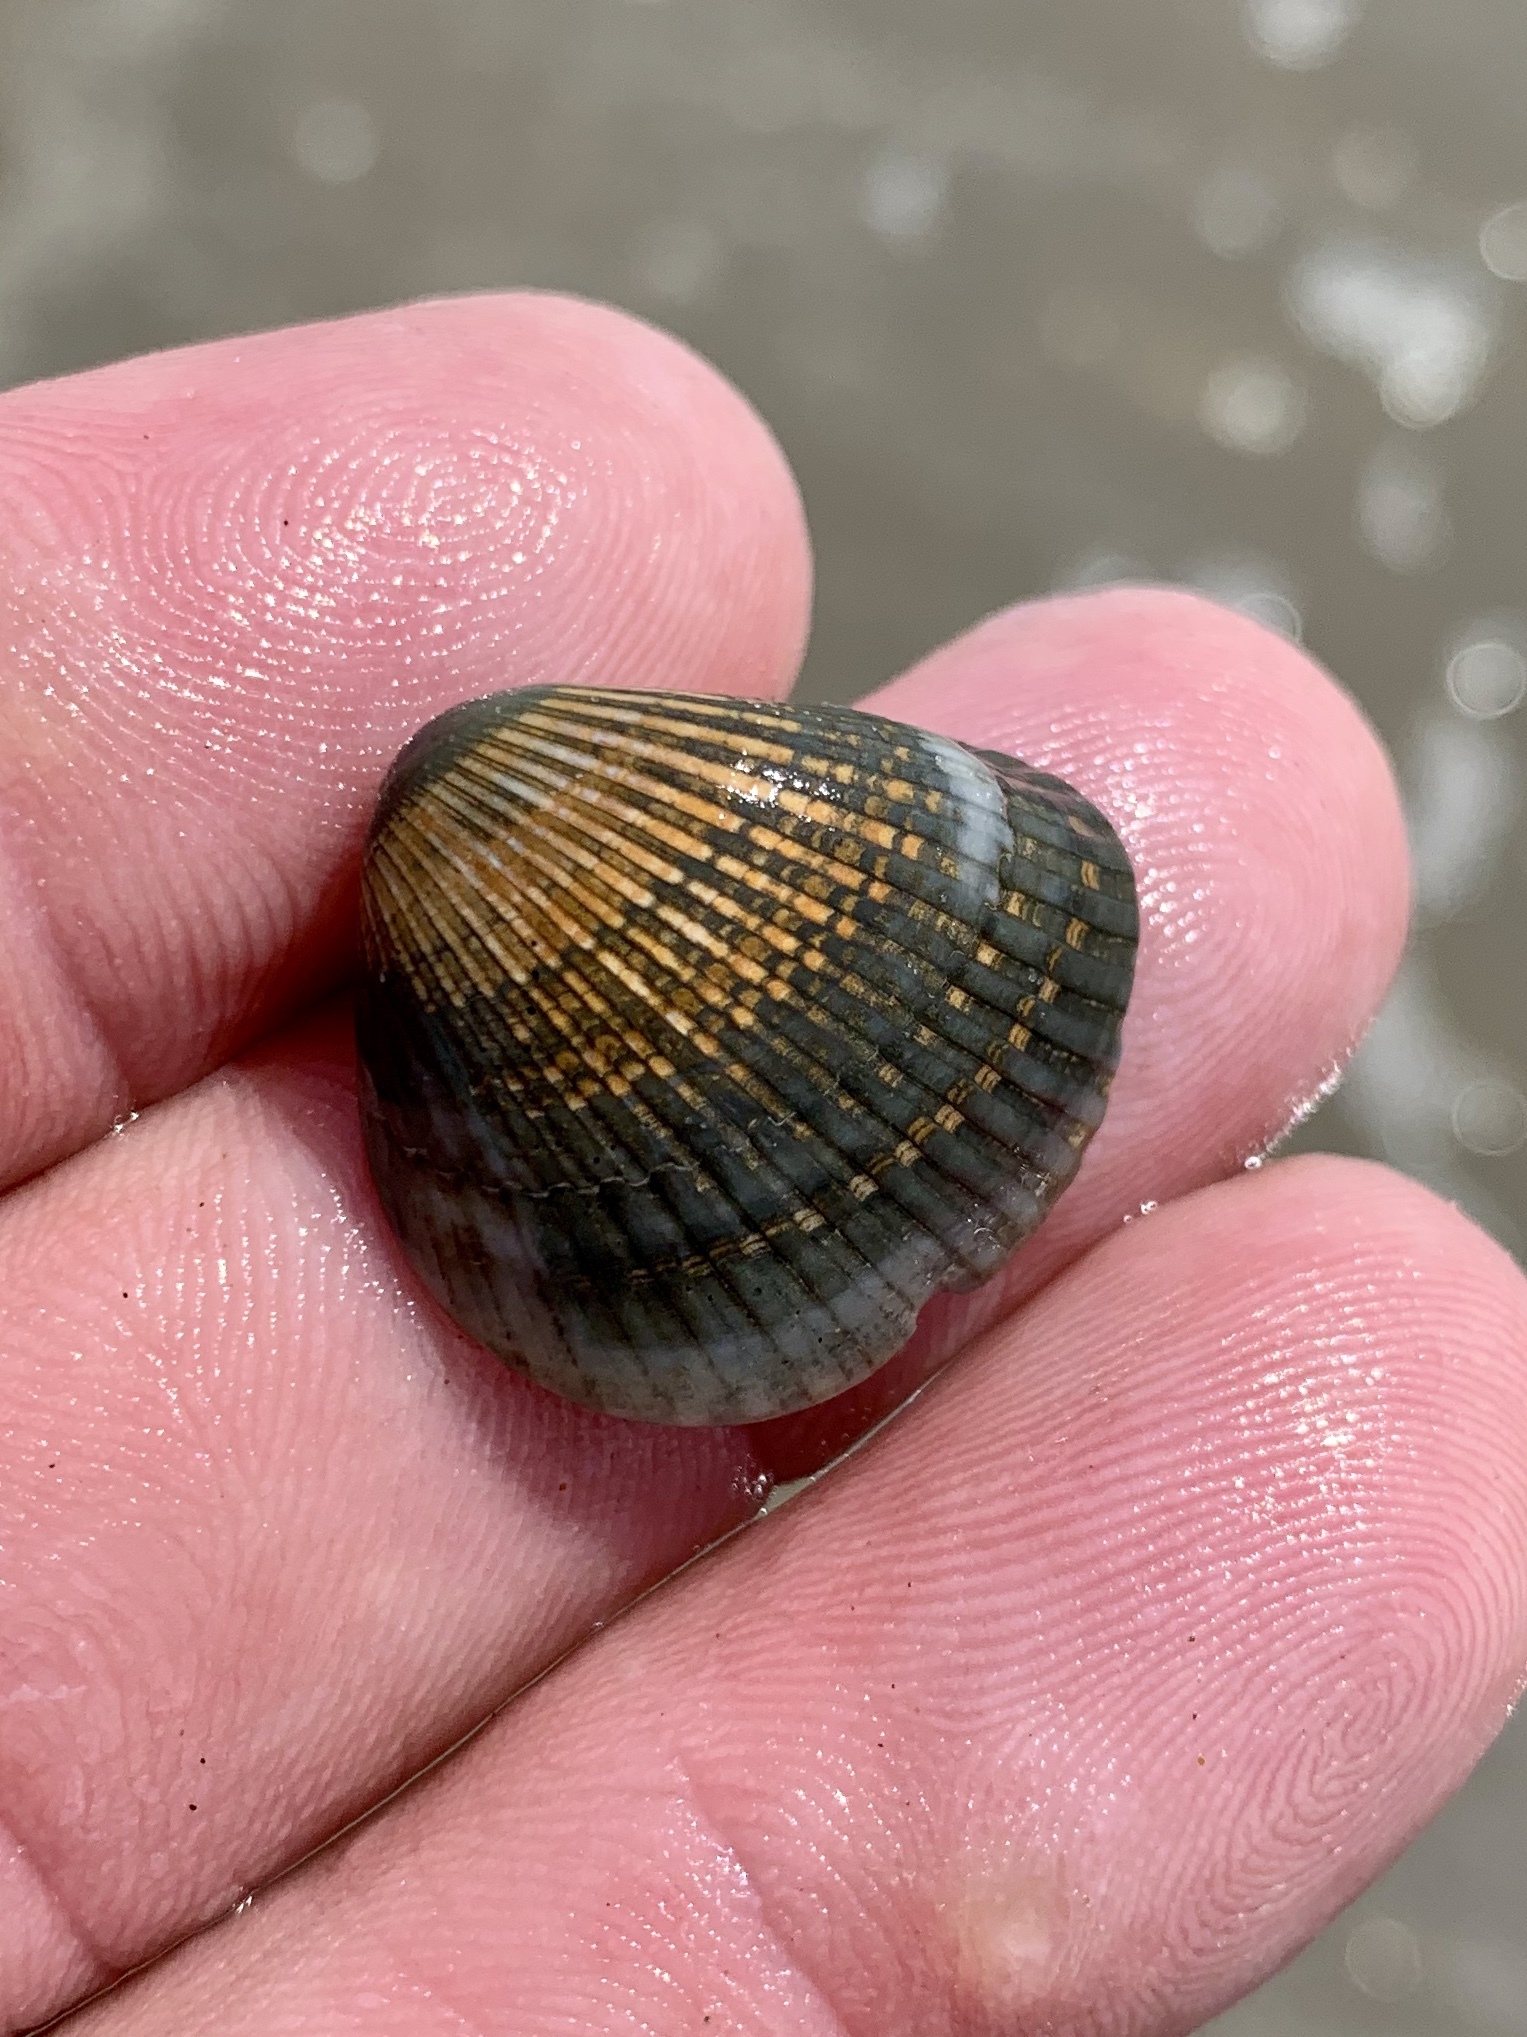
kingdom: Animalia
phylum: Mollusca
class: Bivalvia
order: Arcida
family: Noetiidae
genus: Noetia
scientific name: Noetia ponderosa
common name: Ponderous ark
